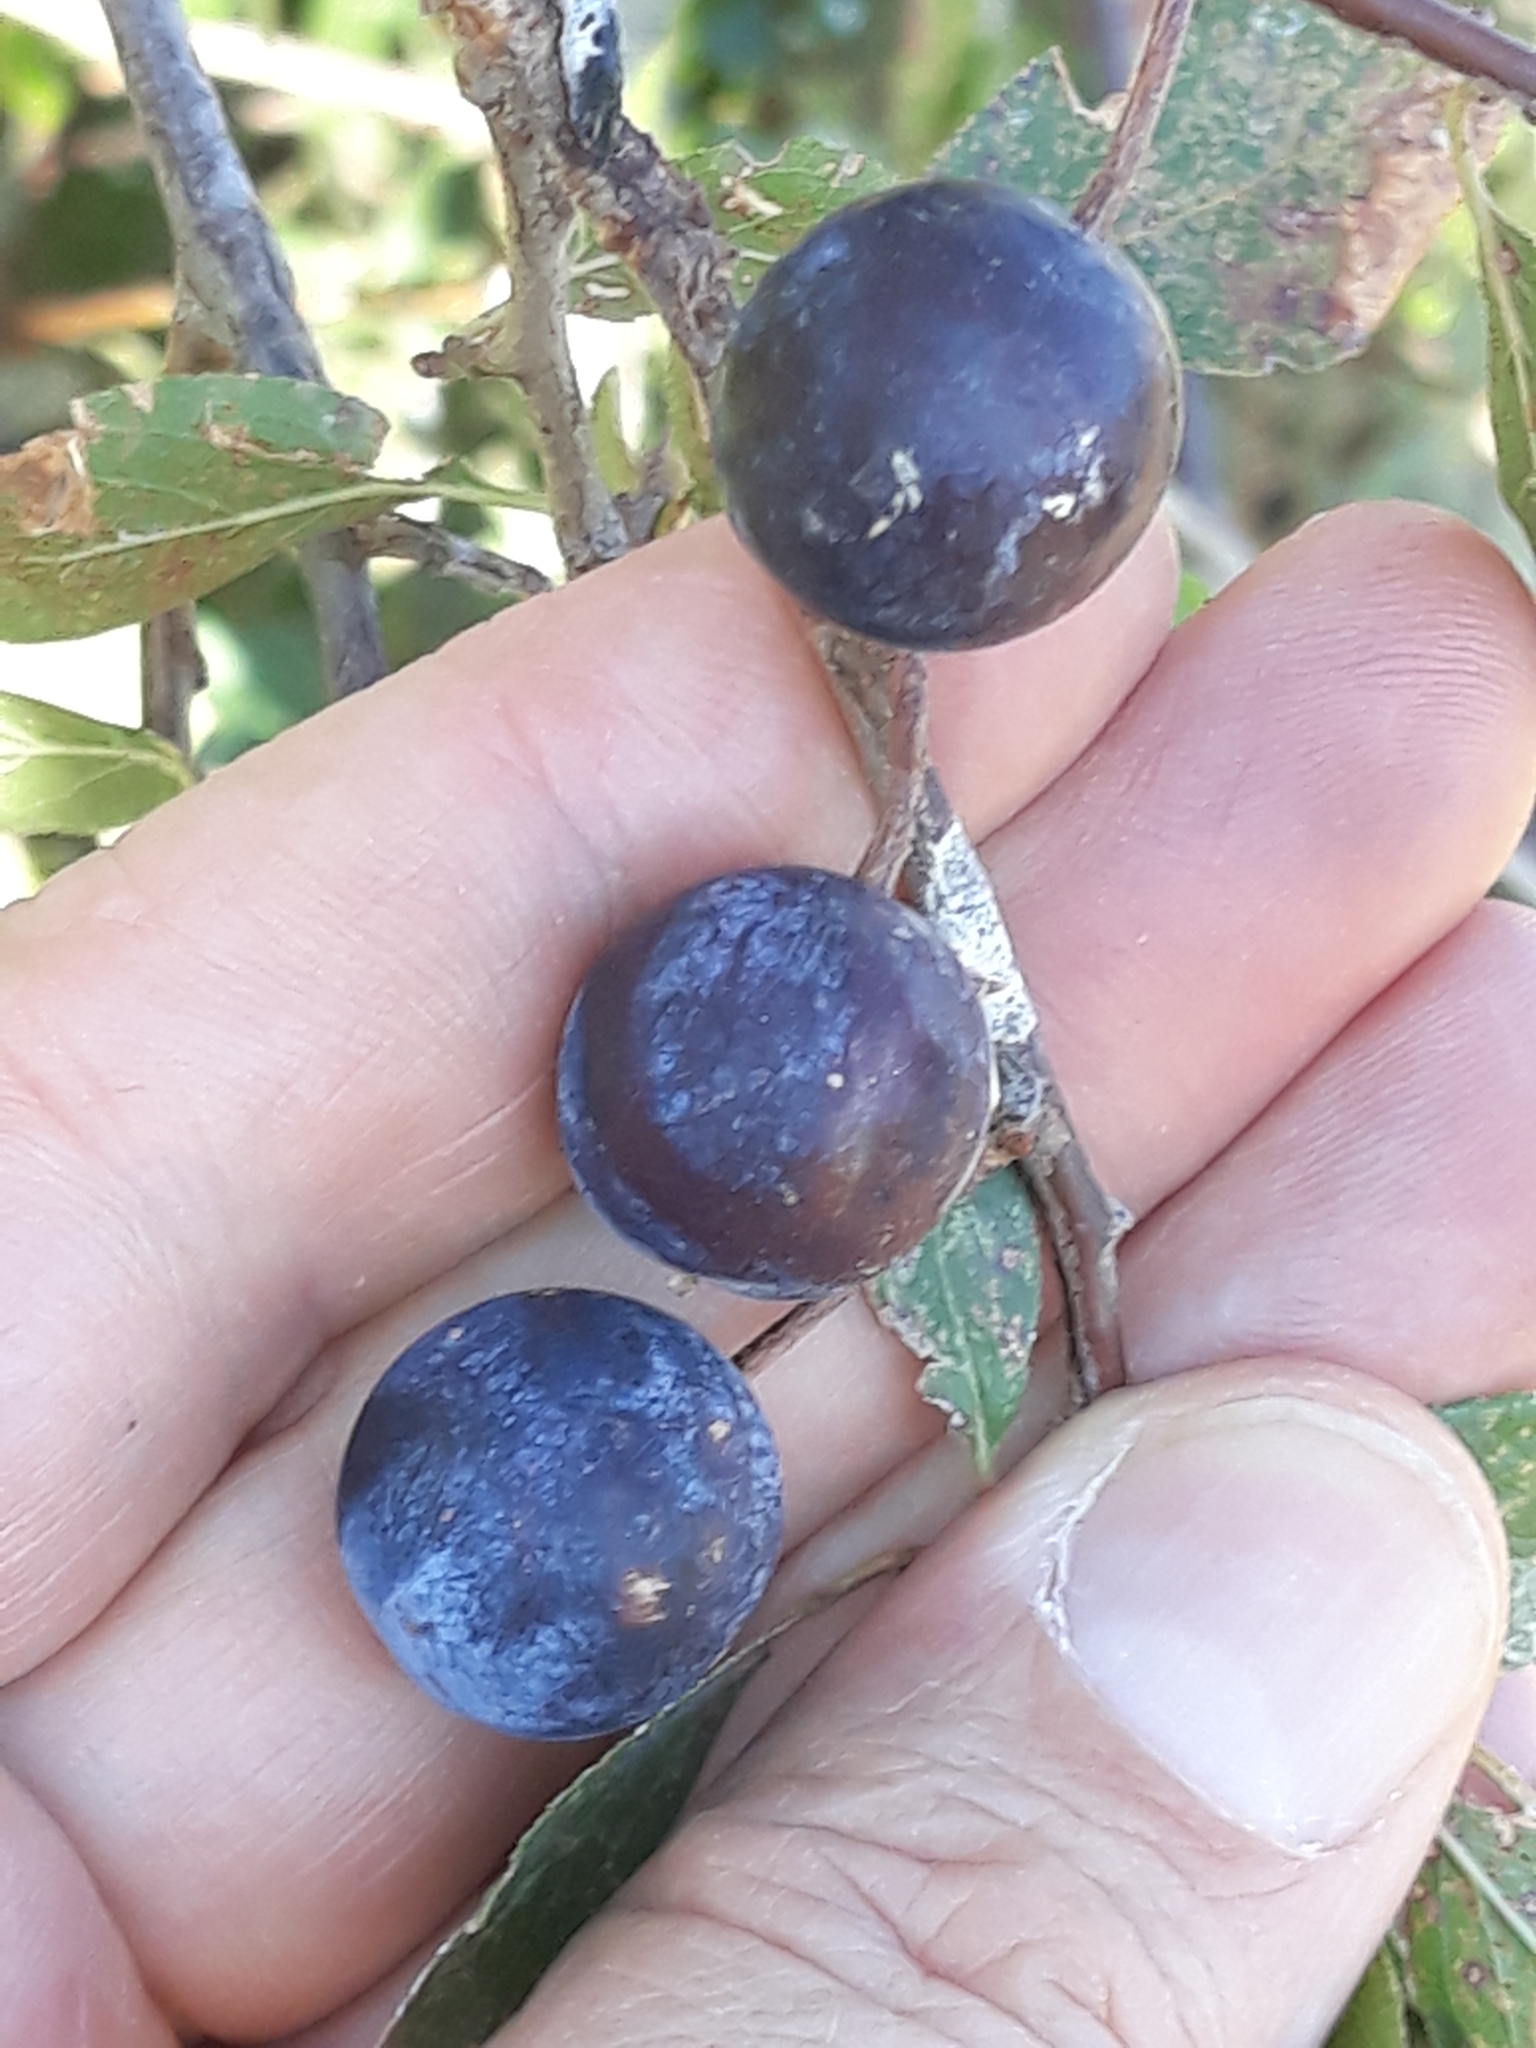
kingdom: Plantae
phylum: Tracheophyta
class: Magnoliopsida
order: Rosales
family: Rosaceae
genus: Prunus
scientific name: Prunus spinosa
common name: Blackthorn
